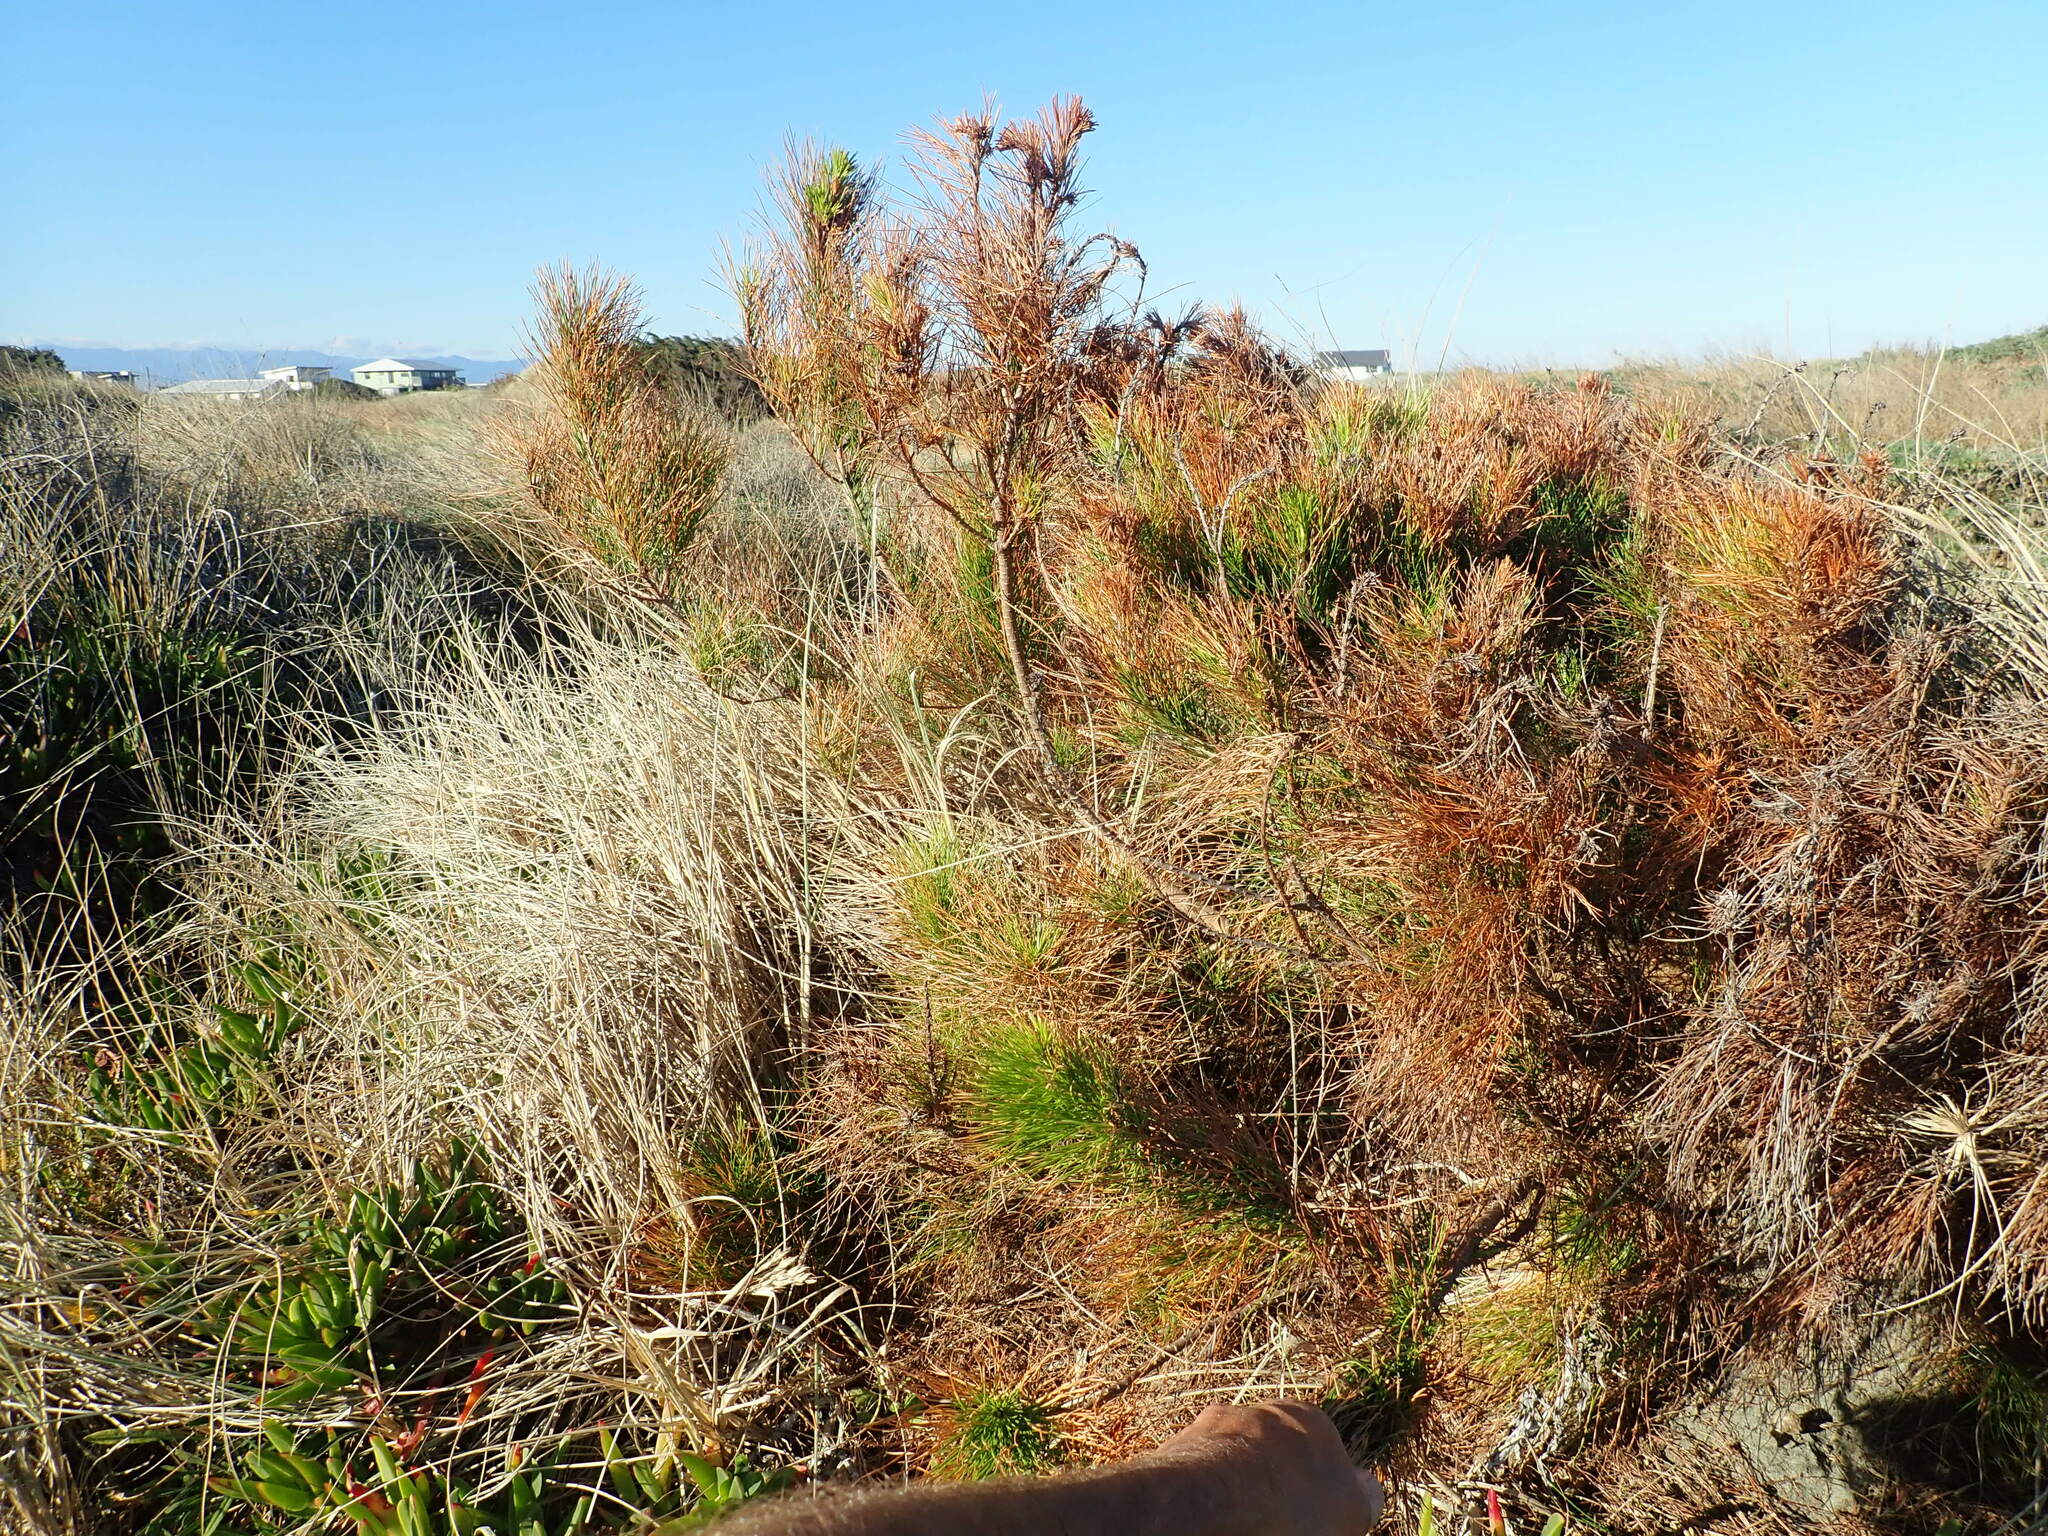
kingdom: Plantae
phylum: Tracheophyta
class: Pinopsida
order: Pinales
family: Pinaceae
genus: Pinus
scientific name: Pinus radiata
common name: Monterey pine
